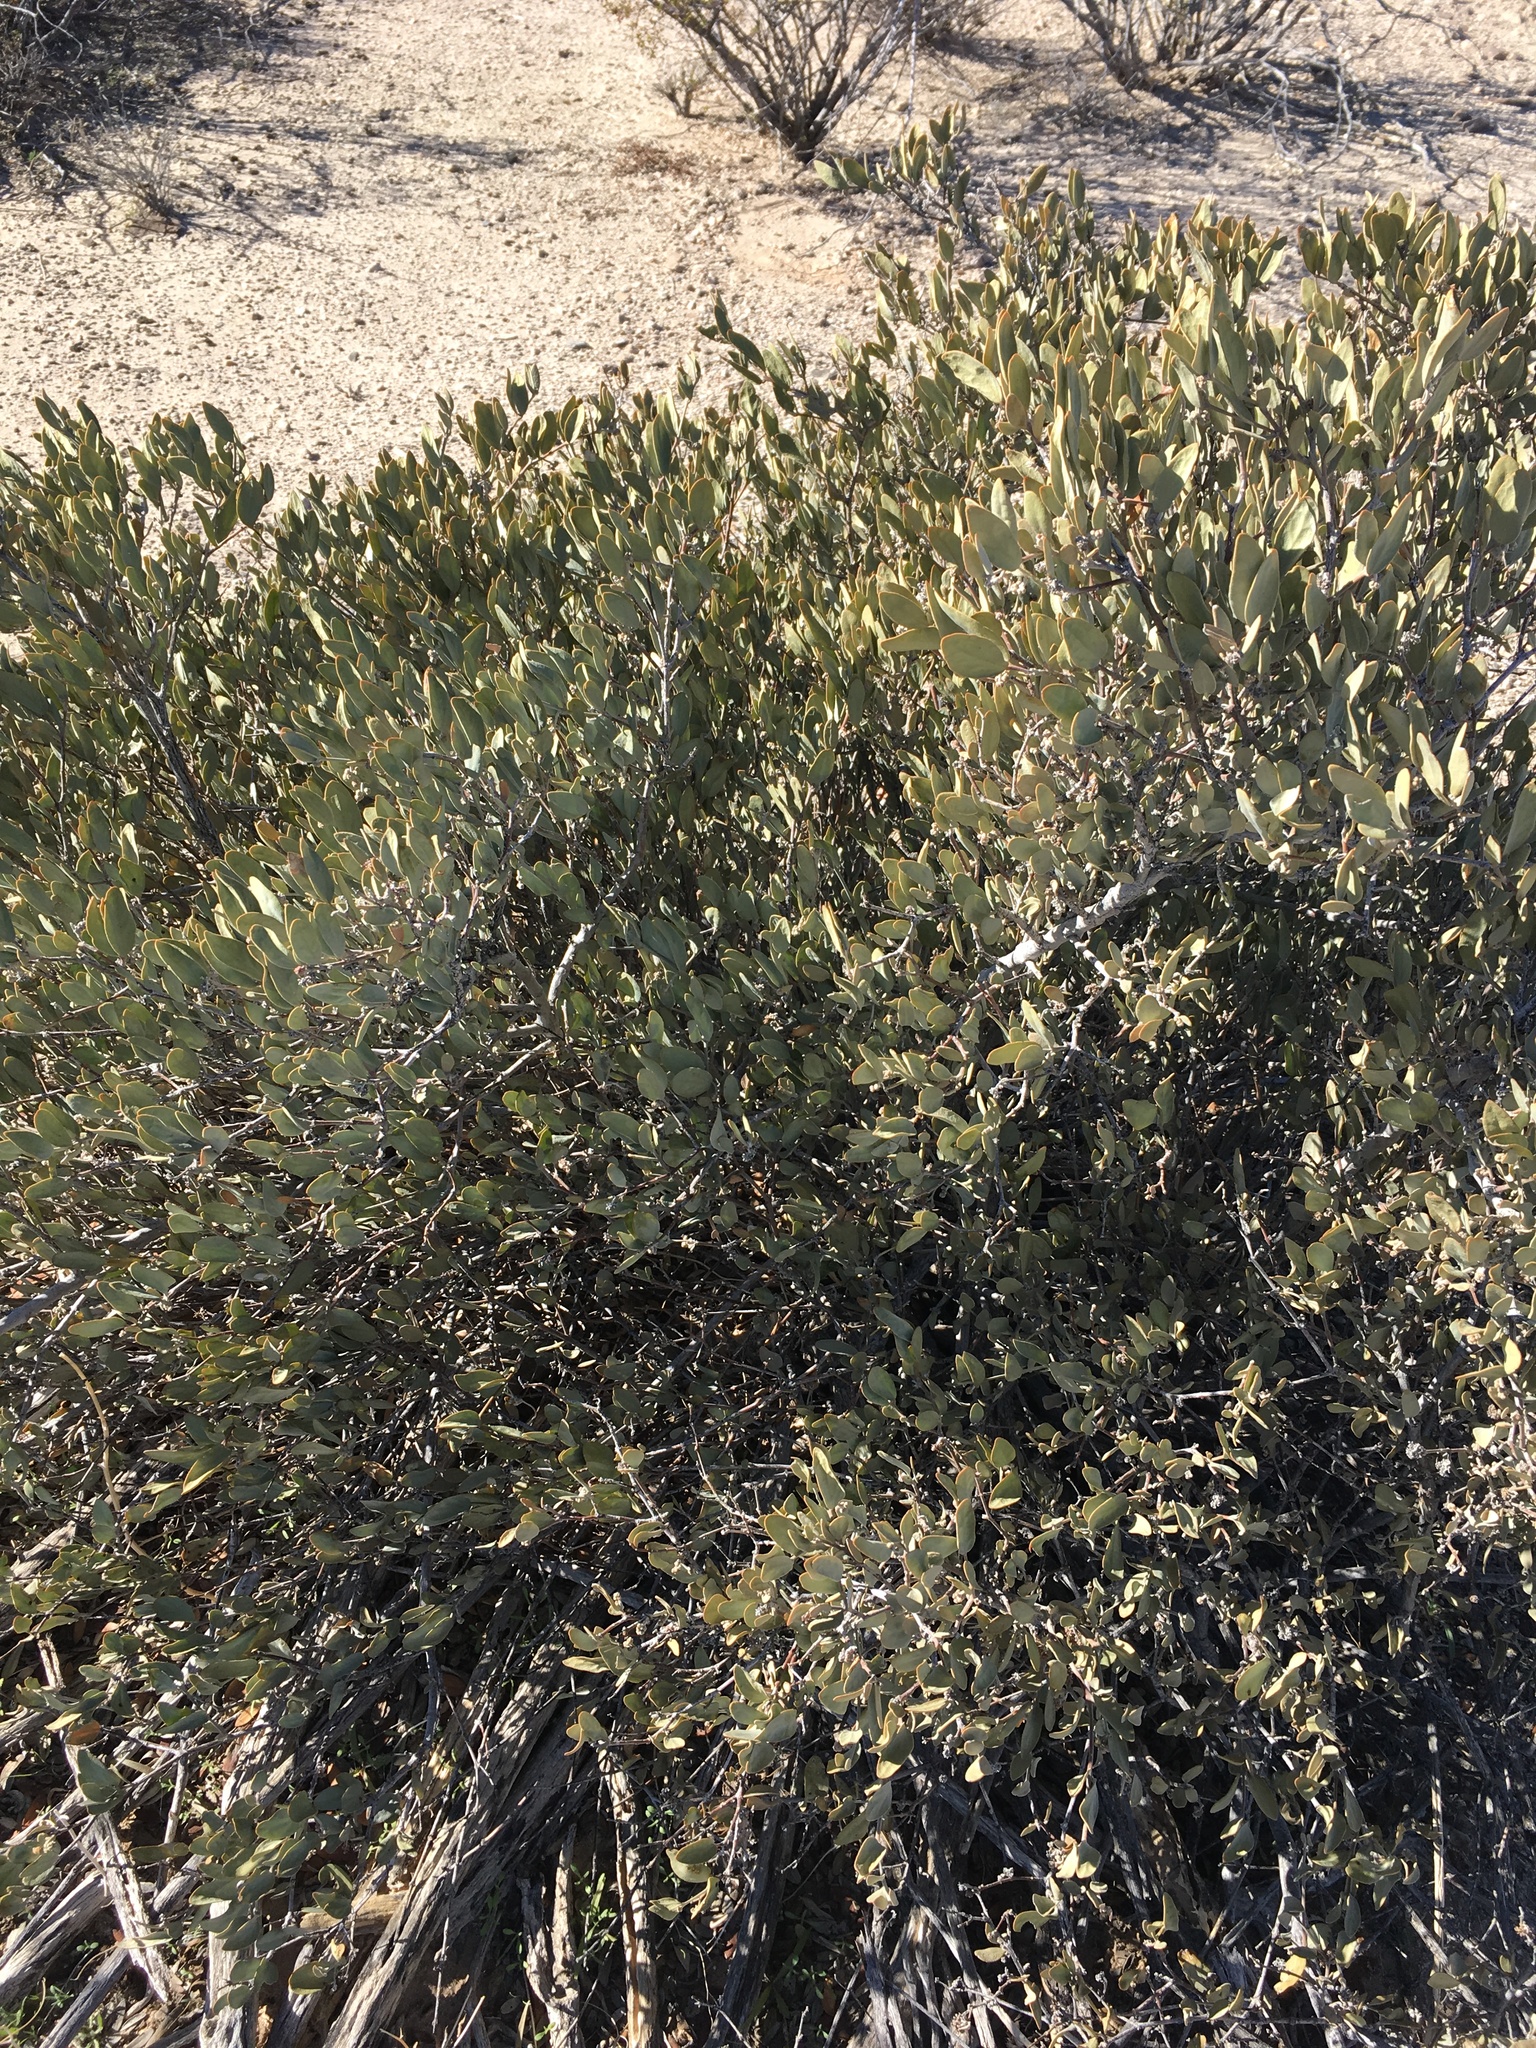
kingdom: Plantae
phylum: Tracheophyta
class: Magnoliopsida
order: Caryophyllales
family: Simmondsiaceae
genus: Simmondsia
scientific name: Simmondsia chinensis
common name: Jojoba
